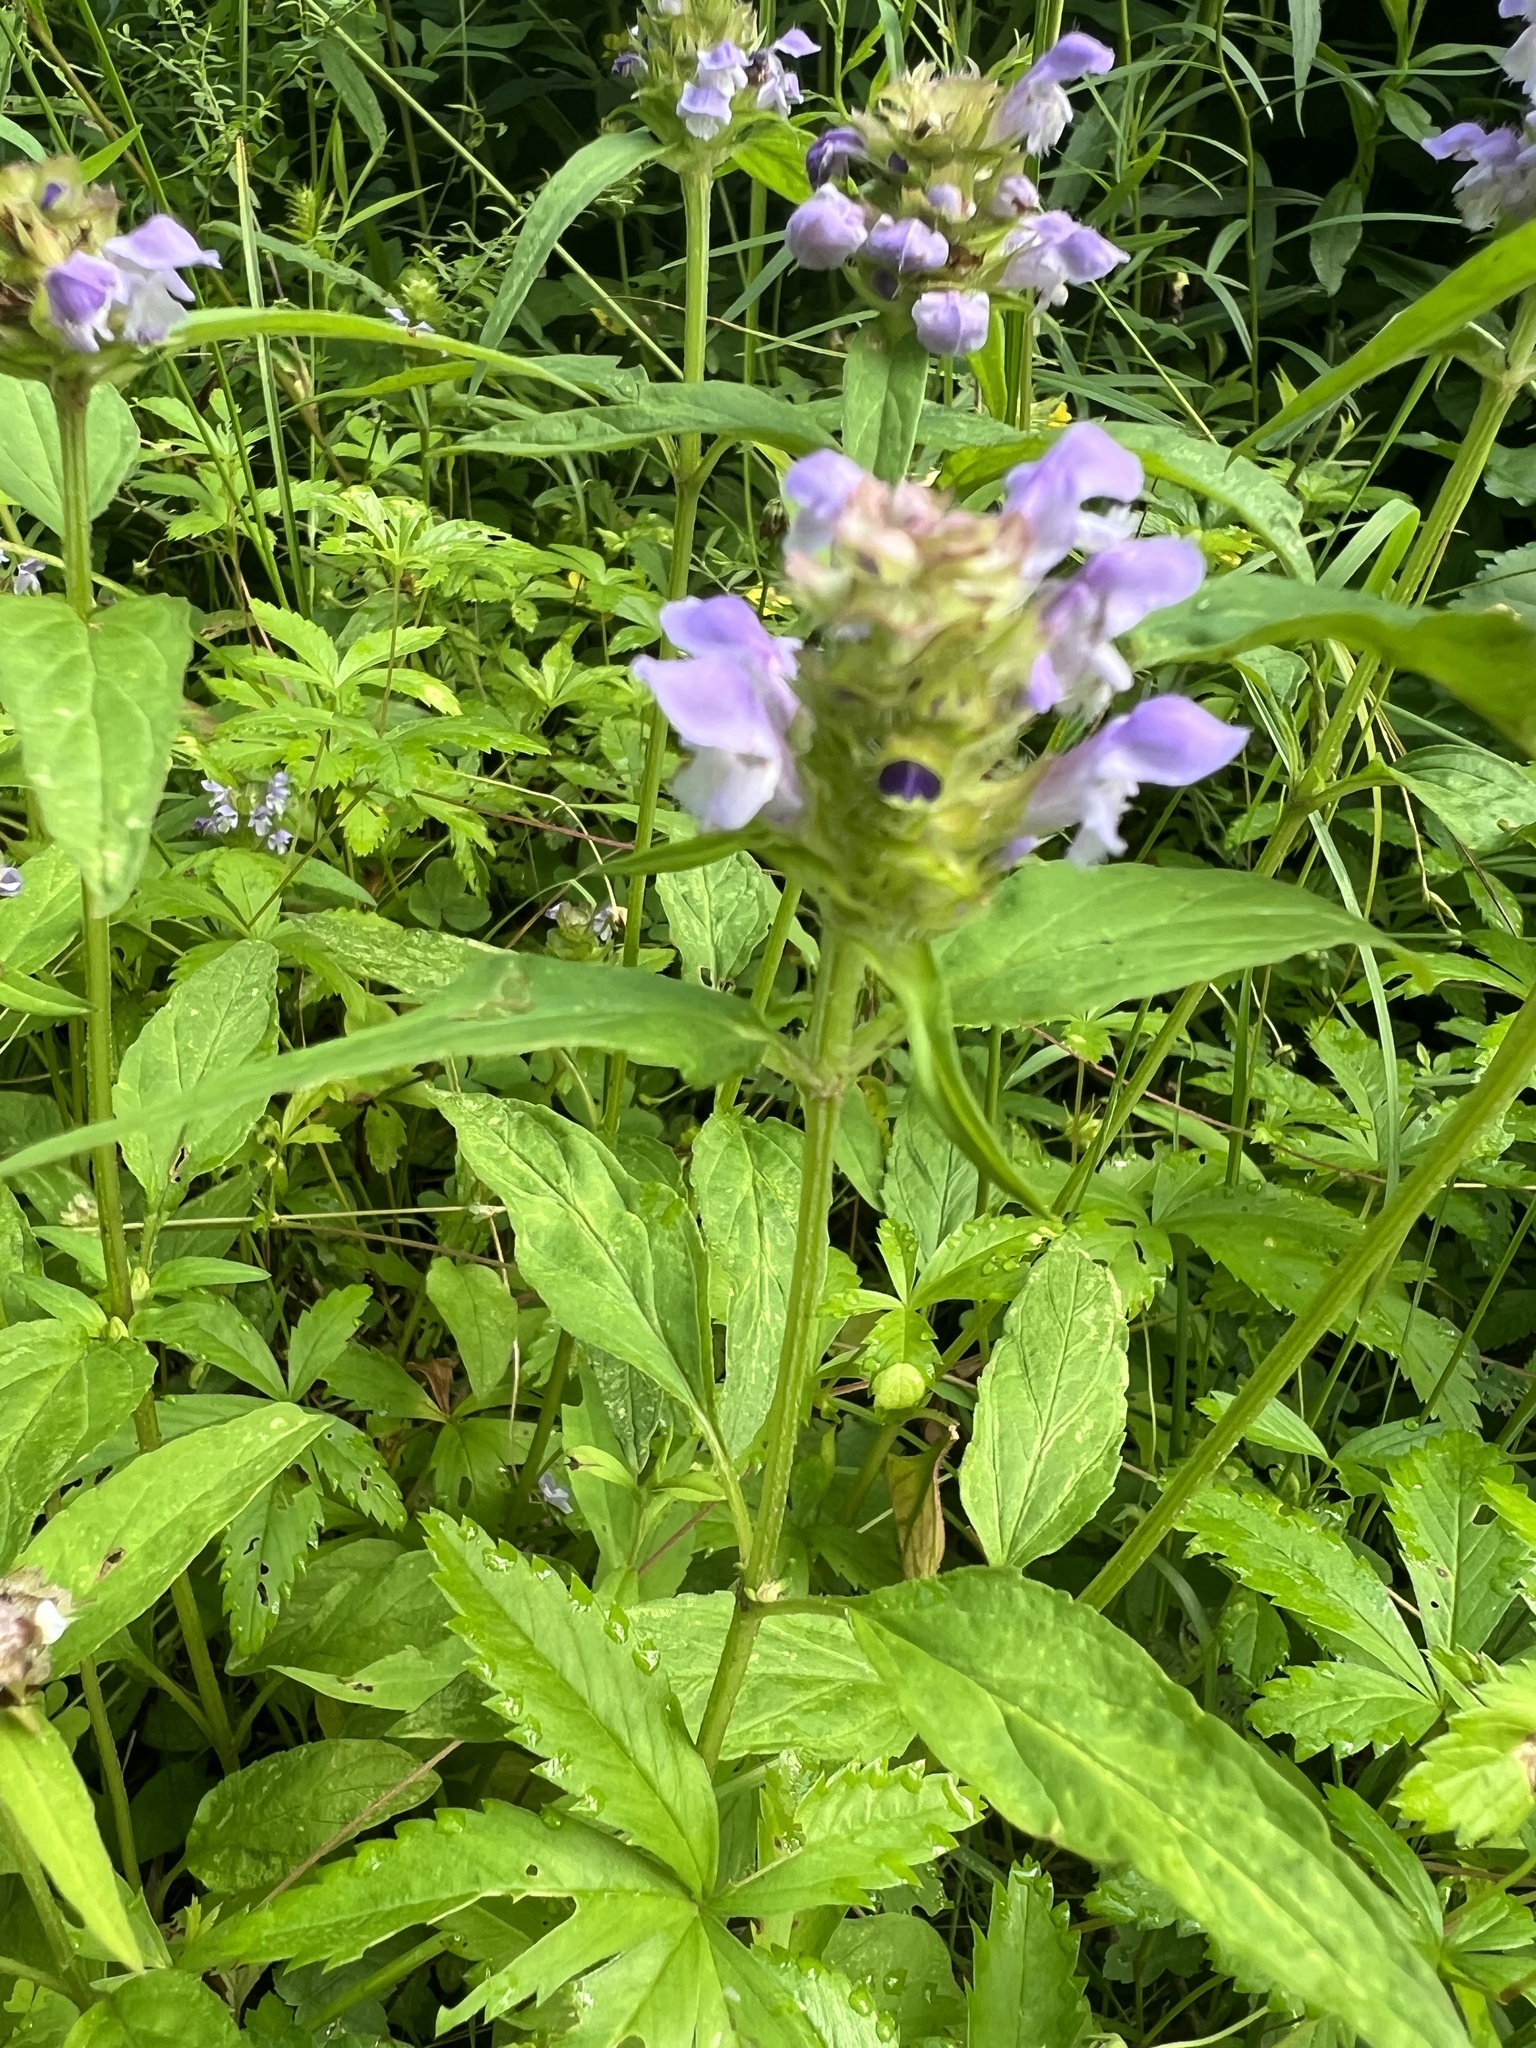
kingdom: Plantae
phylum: Tracheophyta
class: Magnoliopsida
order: Lamiales
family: Lamiaceae
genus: Prunella
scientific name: Prunella vulgaris
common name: Heal-all
